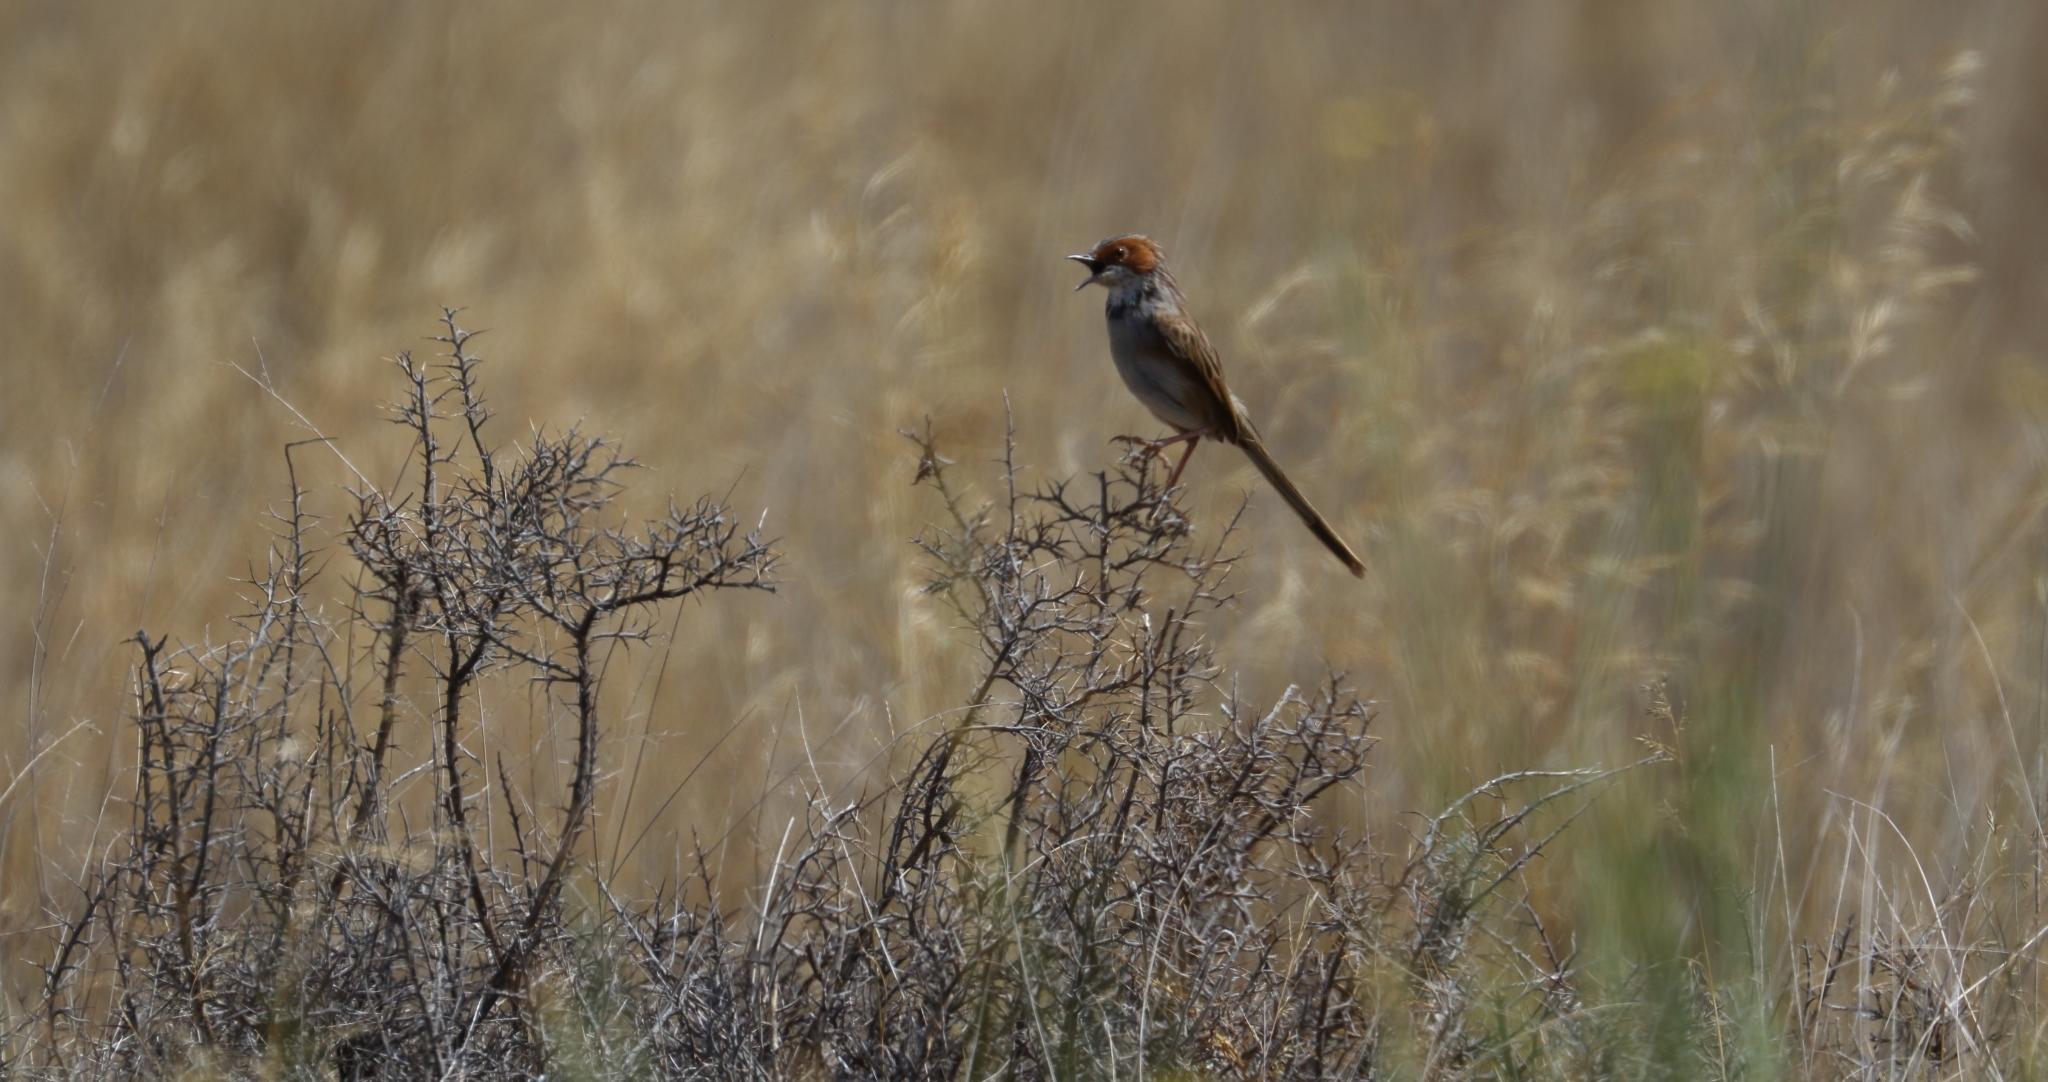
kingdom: Animalia
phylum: Chordata
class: Aves
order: Passeriformes
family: Cisticolidae
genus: Malcorus
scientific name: Malcorus pectoralis
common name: Rufous-eared warbler
